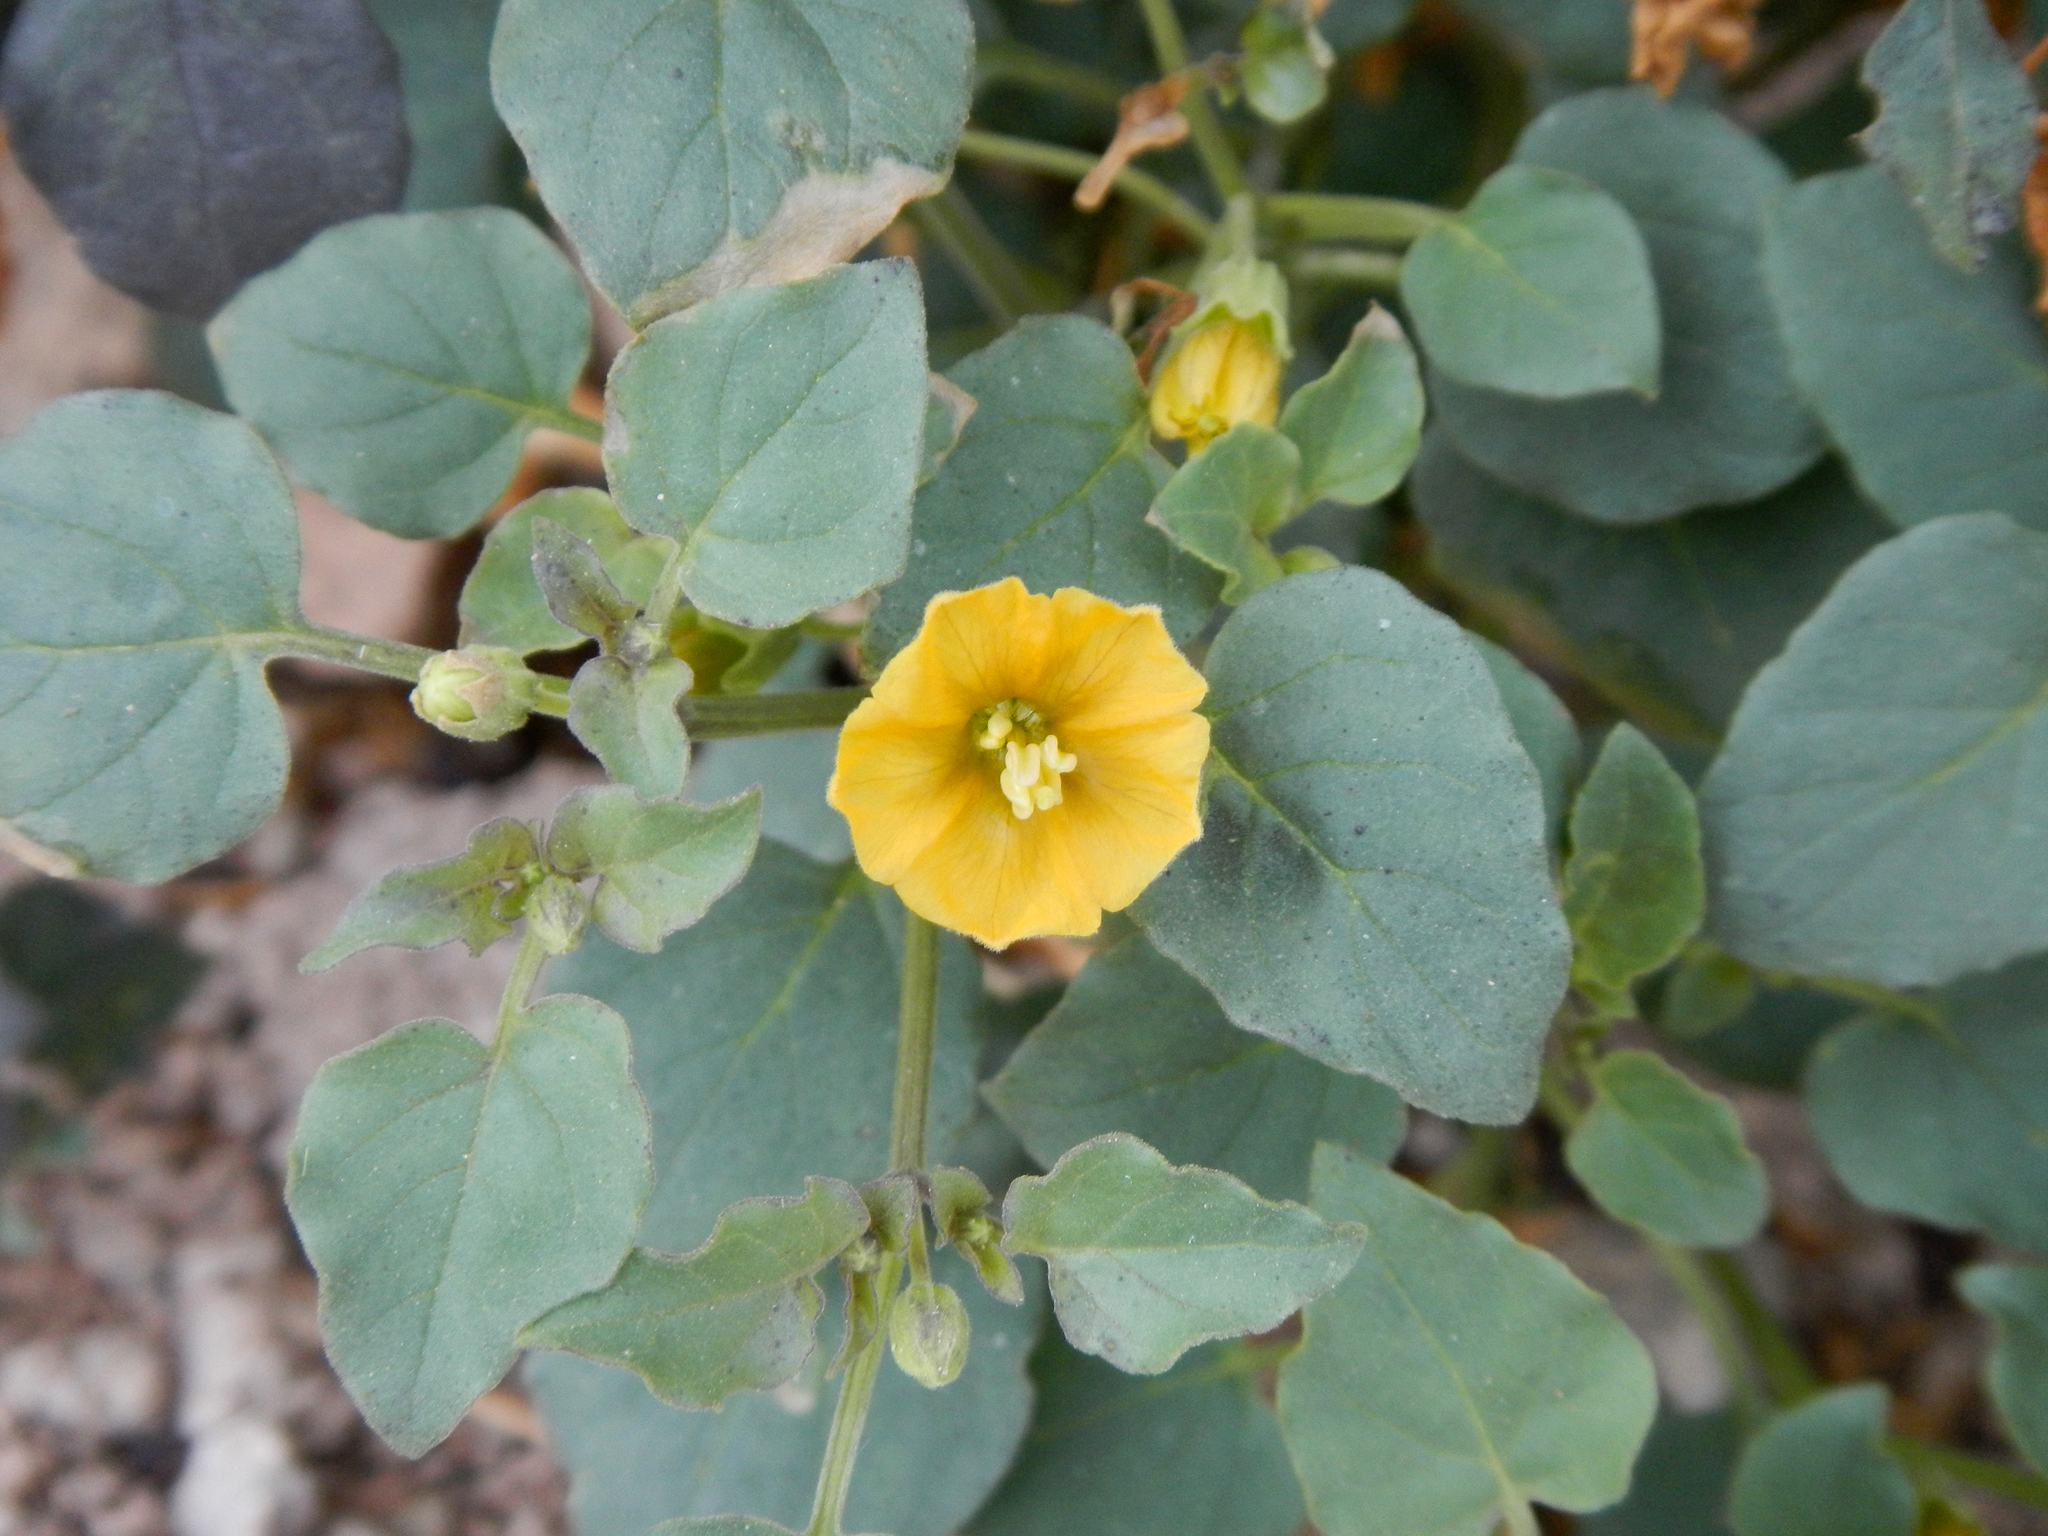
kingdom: Plantae
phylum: Tracheophyta
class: Magnoliopsida
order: Solanales
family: Solanaceae
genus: Physalis
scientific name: Physalis crassifolia
